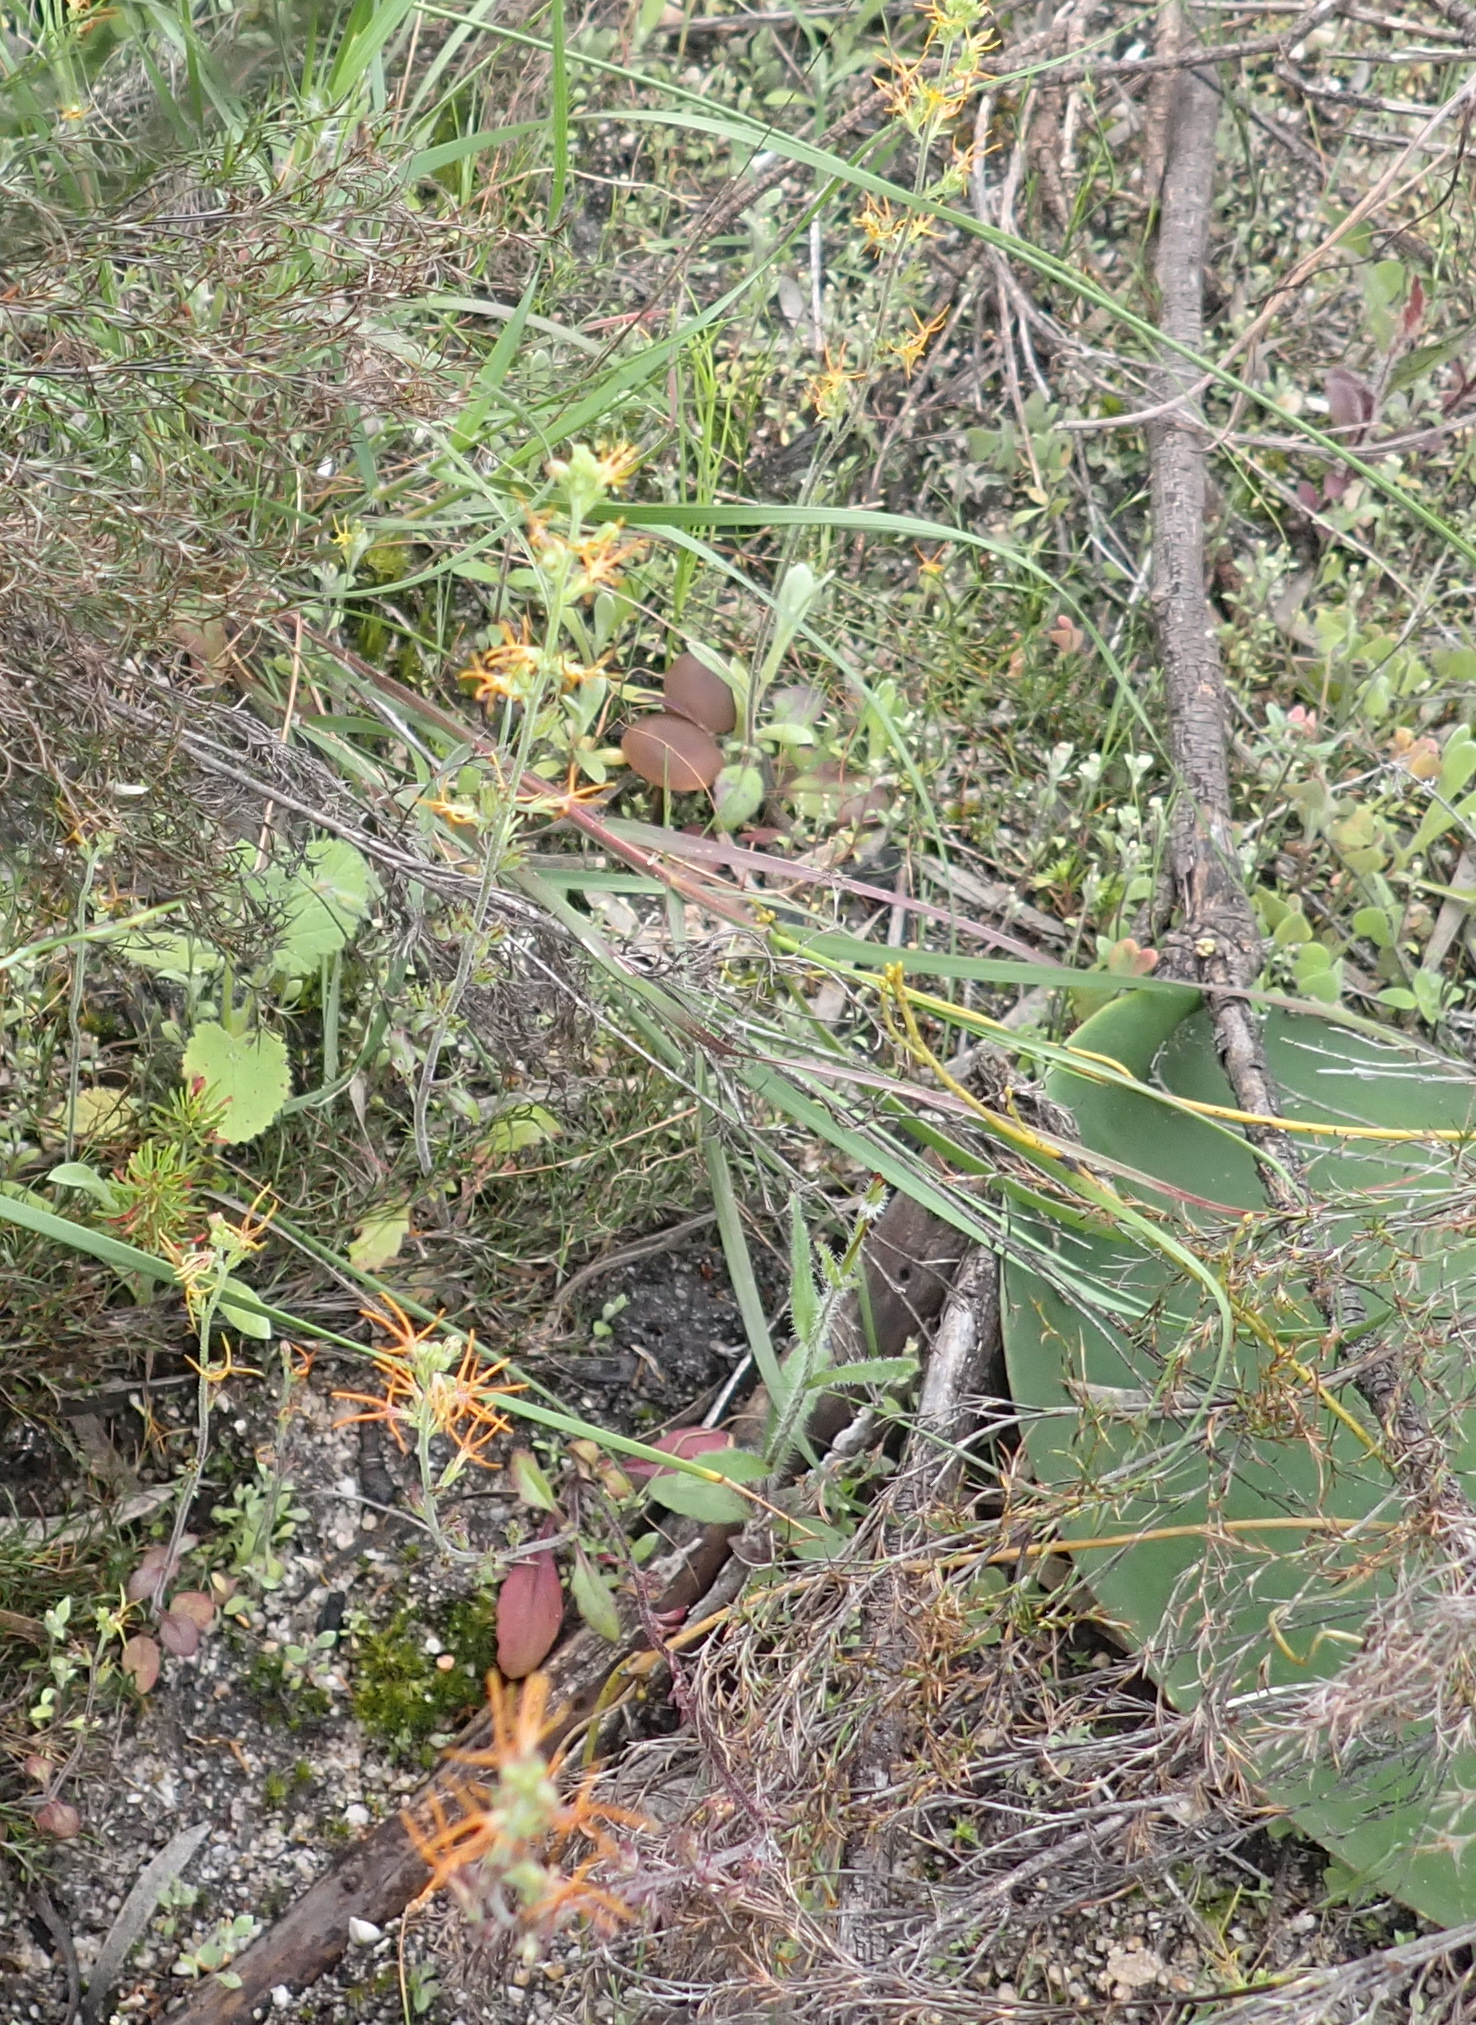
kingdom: Plantae
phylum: Tracheophyta
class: Magnoliopsida
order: Lamiales
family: Scrophulariaceae
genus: Manulea
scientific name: Manulea cheiranthus
